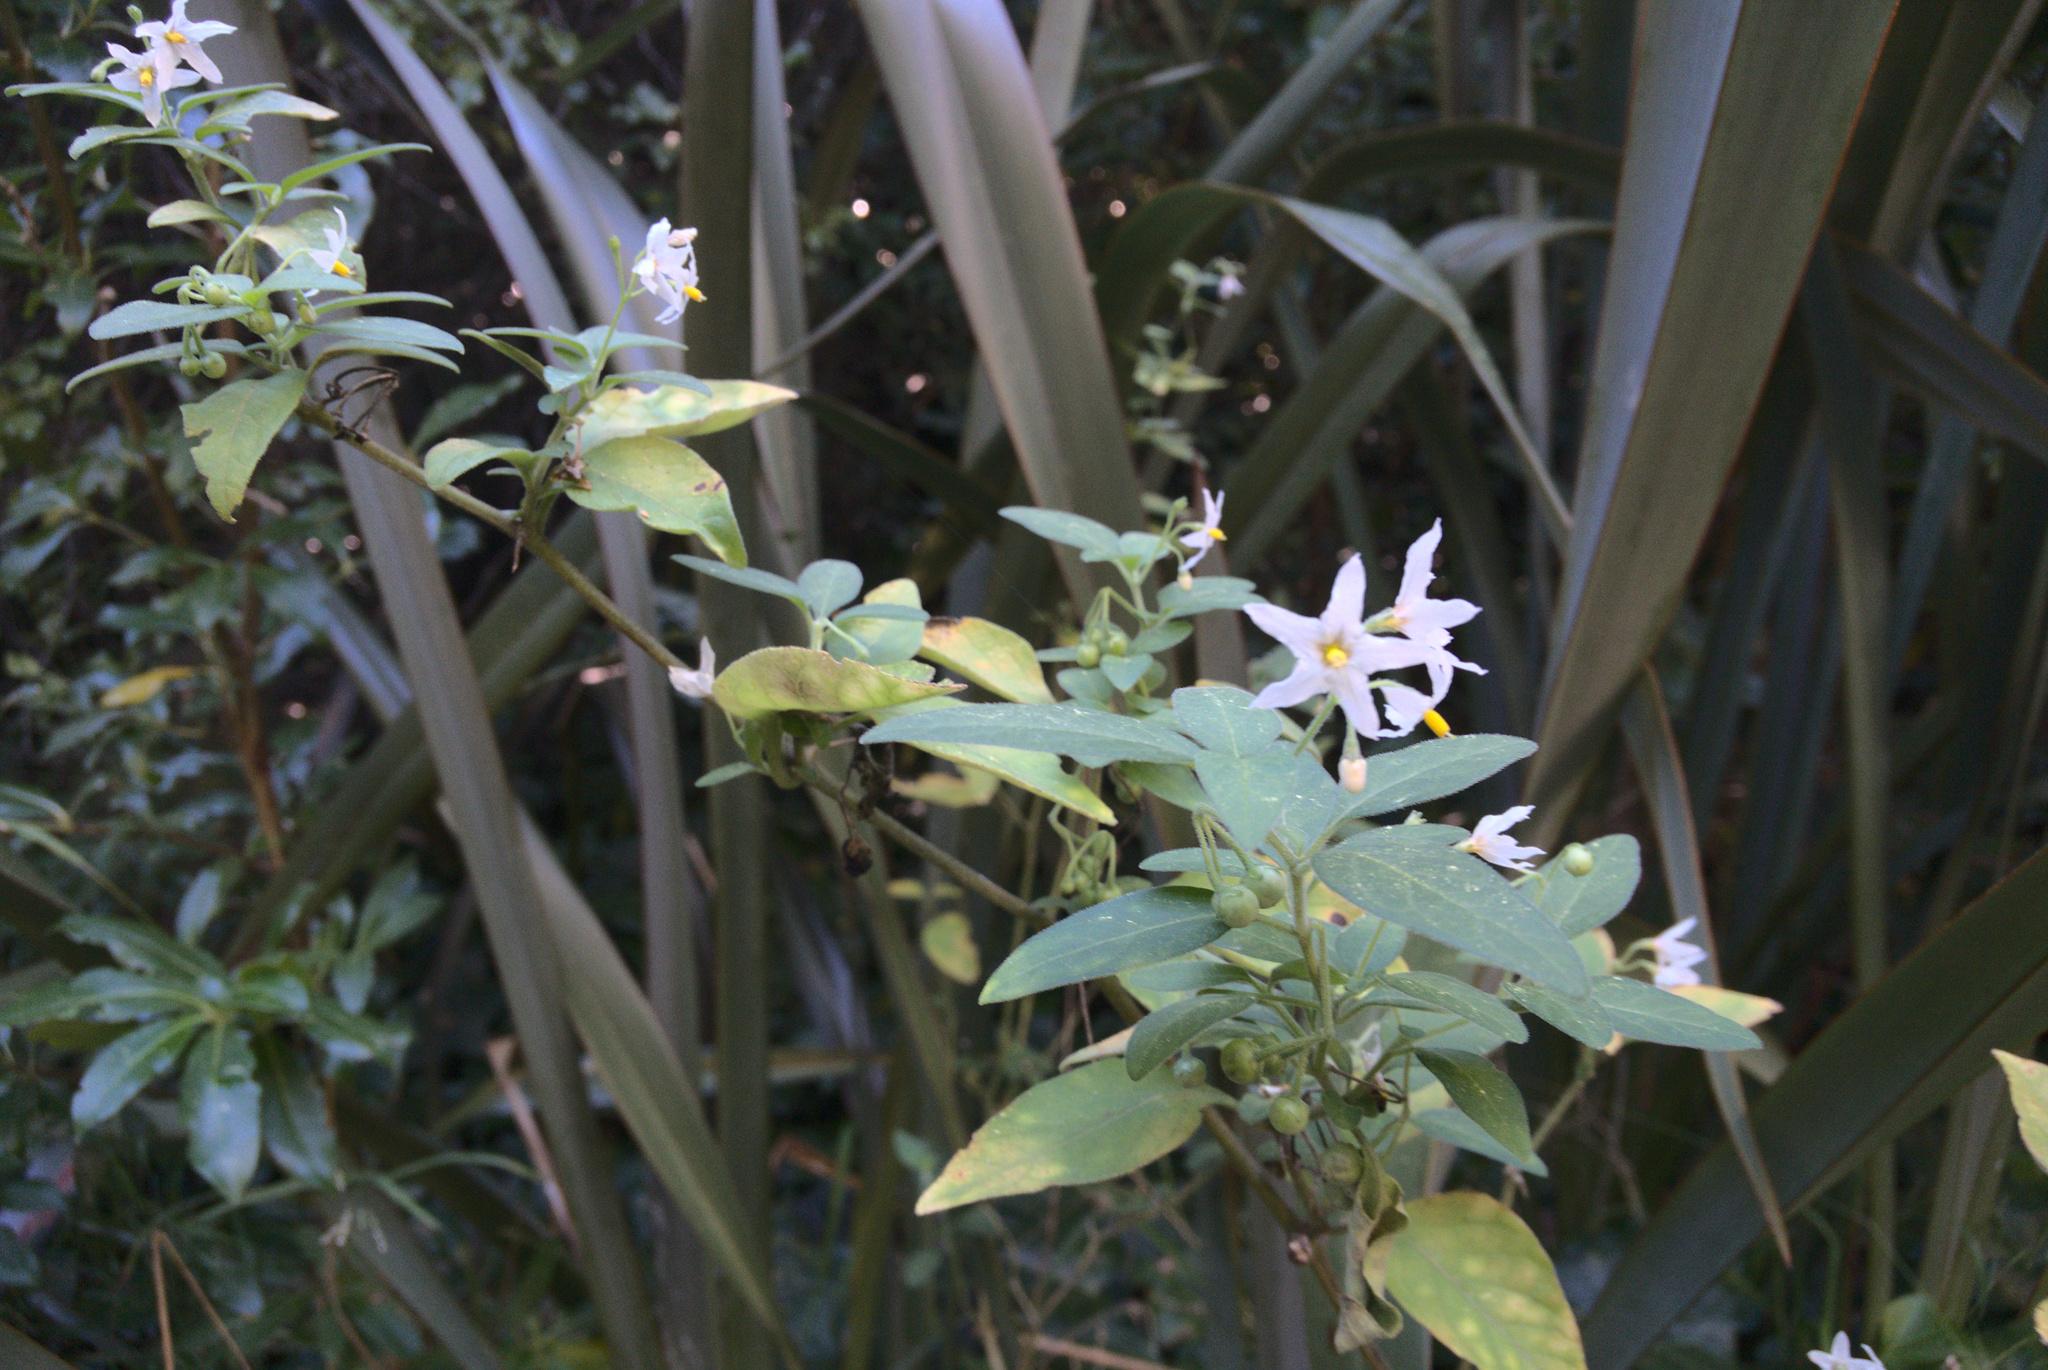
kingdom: Plantae
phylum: Tracheophyta
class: Magnoliopsida
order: Solanales
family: Solanaceae
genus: Solanum
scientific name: Solanum chenopodioides
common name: Tall nightshade
